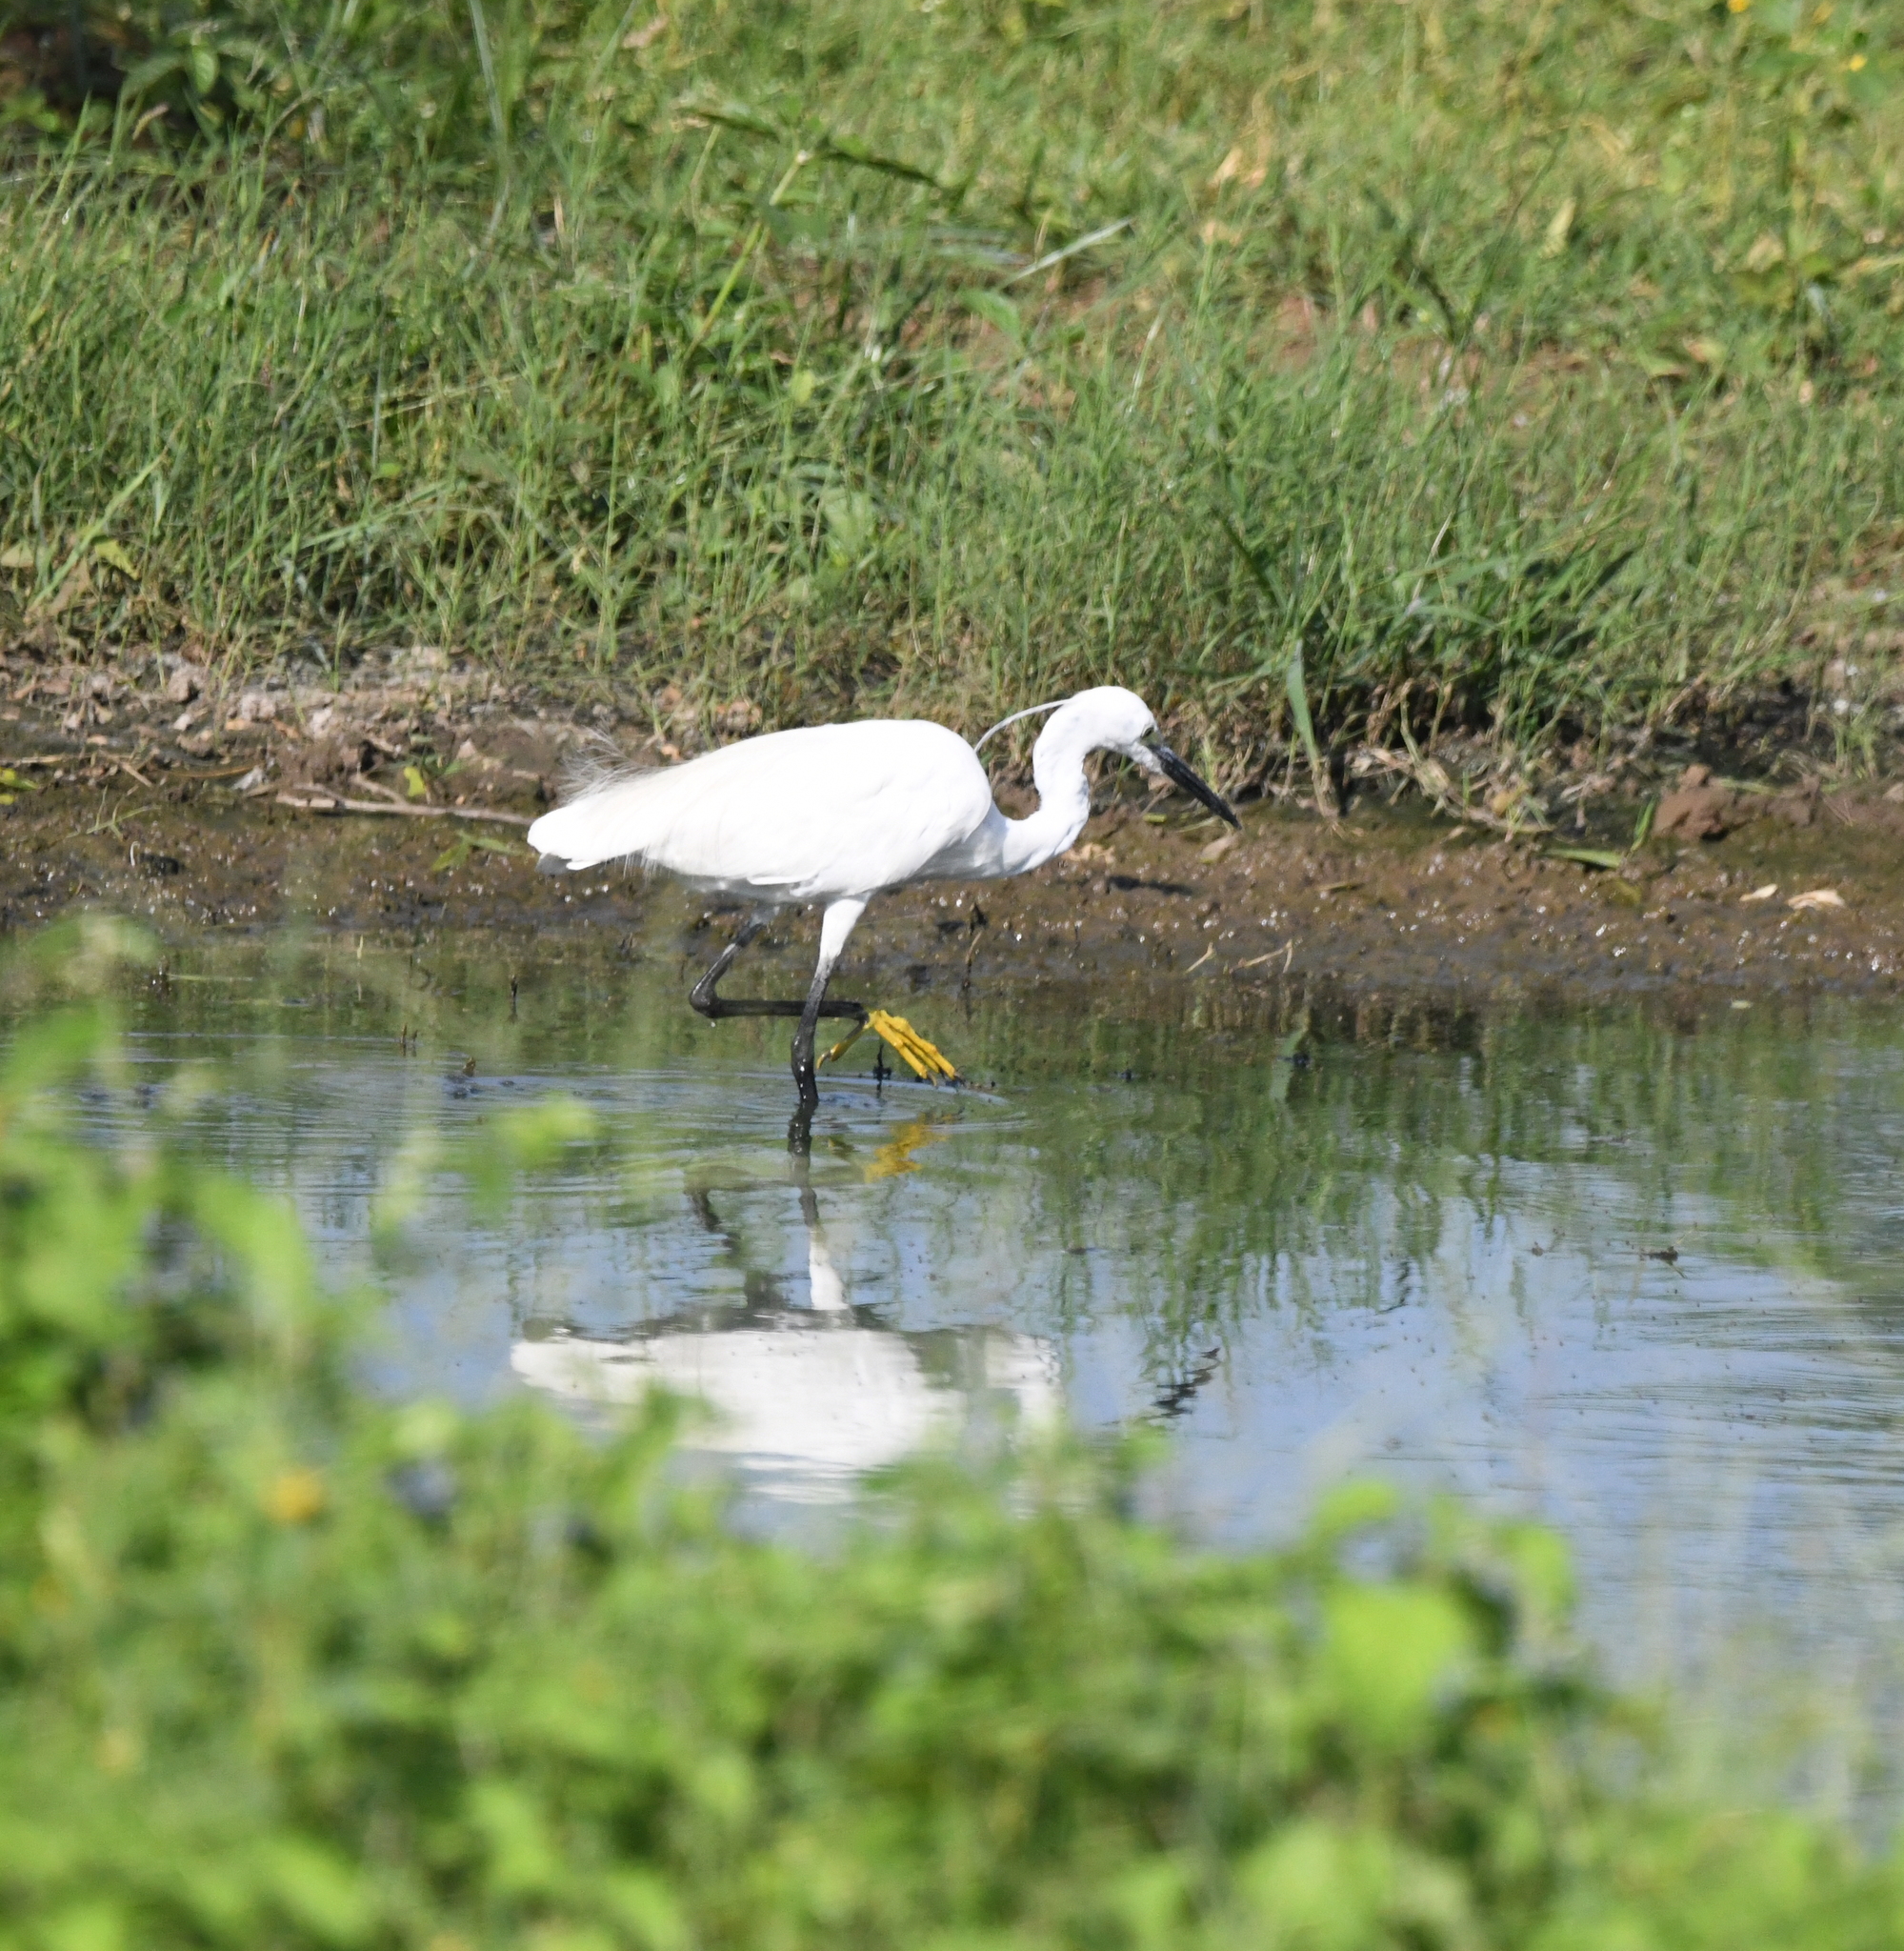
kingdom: Animalia
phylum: Chordata
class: Aves
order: Pelecaniformes
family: Ardeidae
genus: Egretta
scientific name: Egretta garzetta
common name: Little egret
